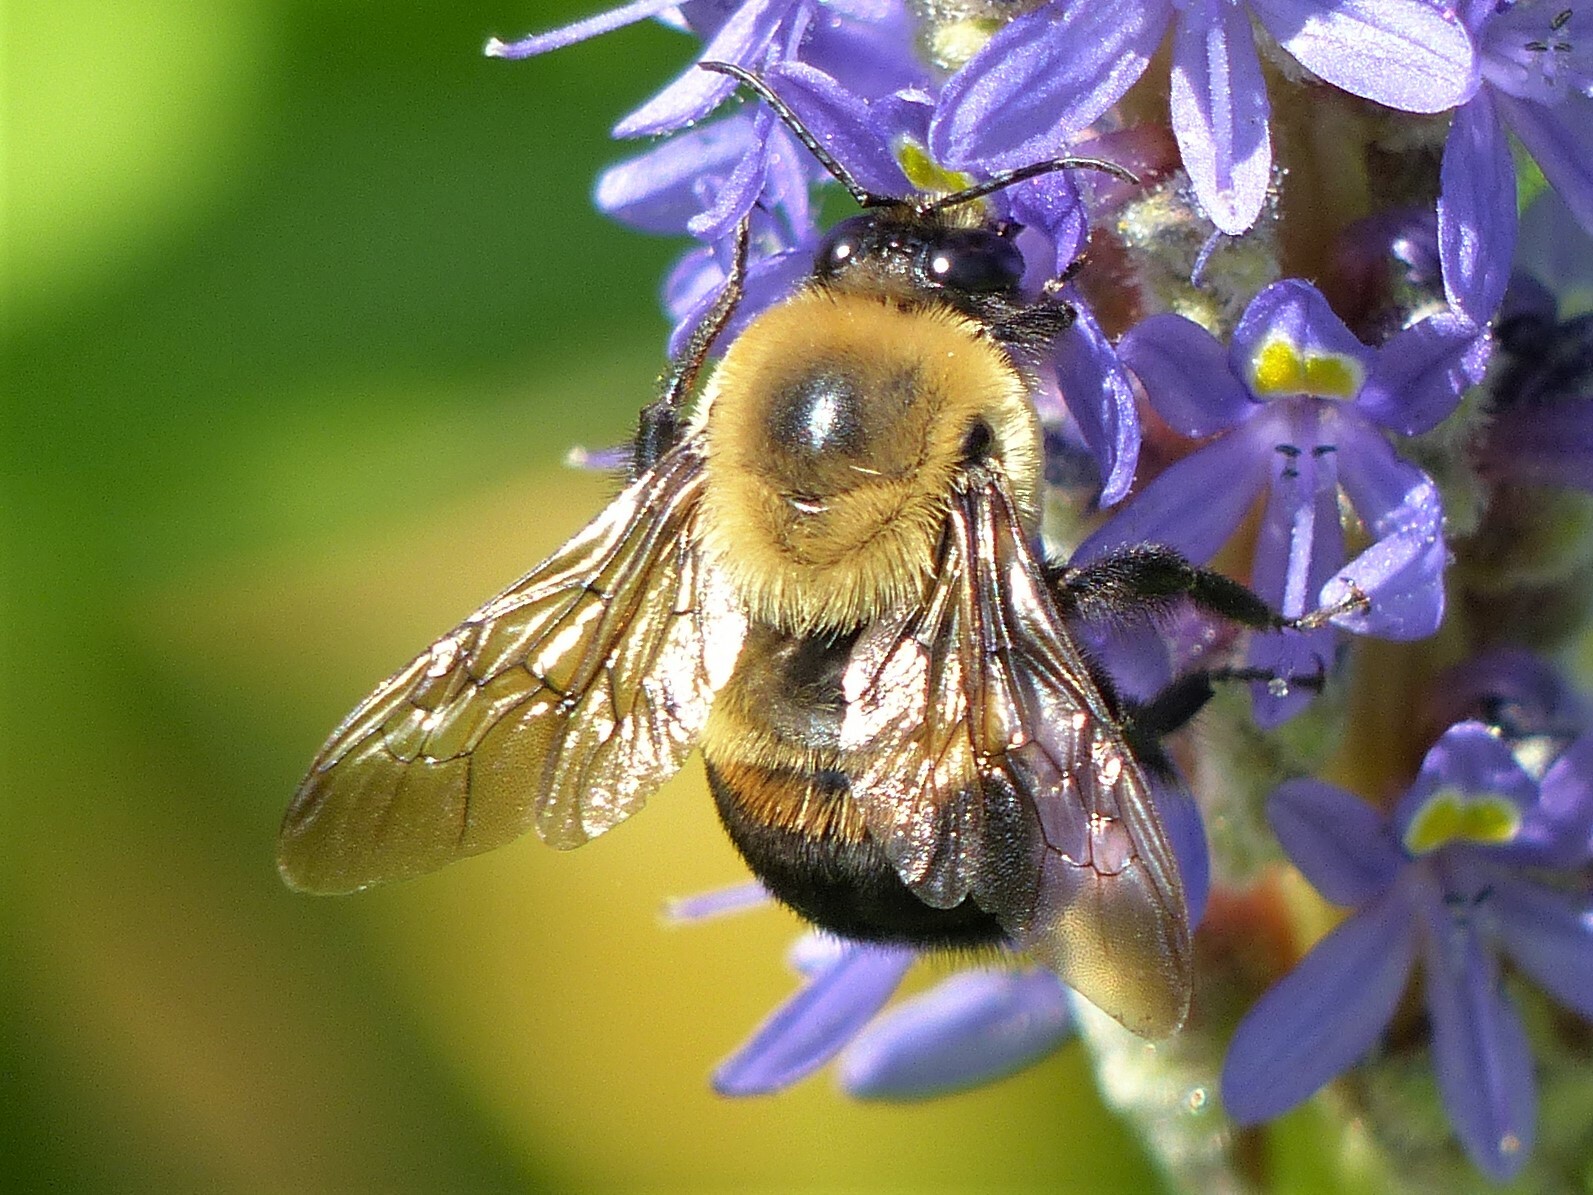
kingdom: Animalia
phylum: Arthropoda
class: Insecta
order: Hymenoptera
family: Apidae
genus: Bombus
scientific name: Bombus griseocollis
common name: Brown-belted bumble bee
